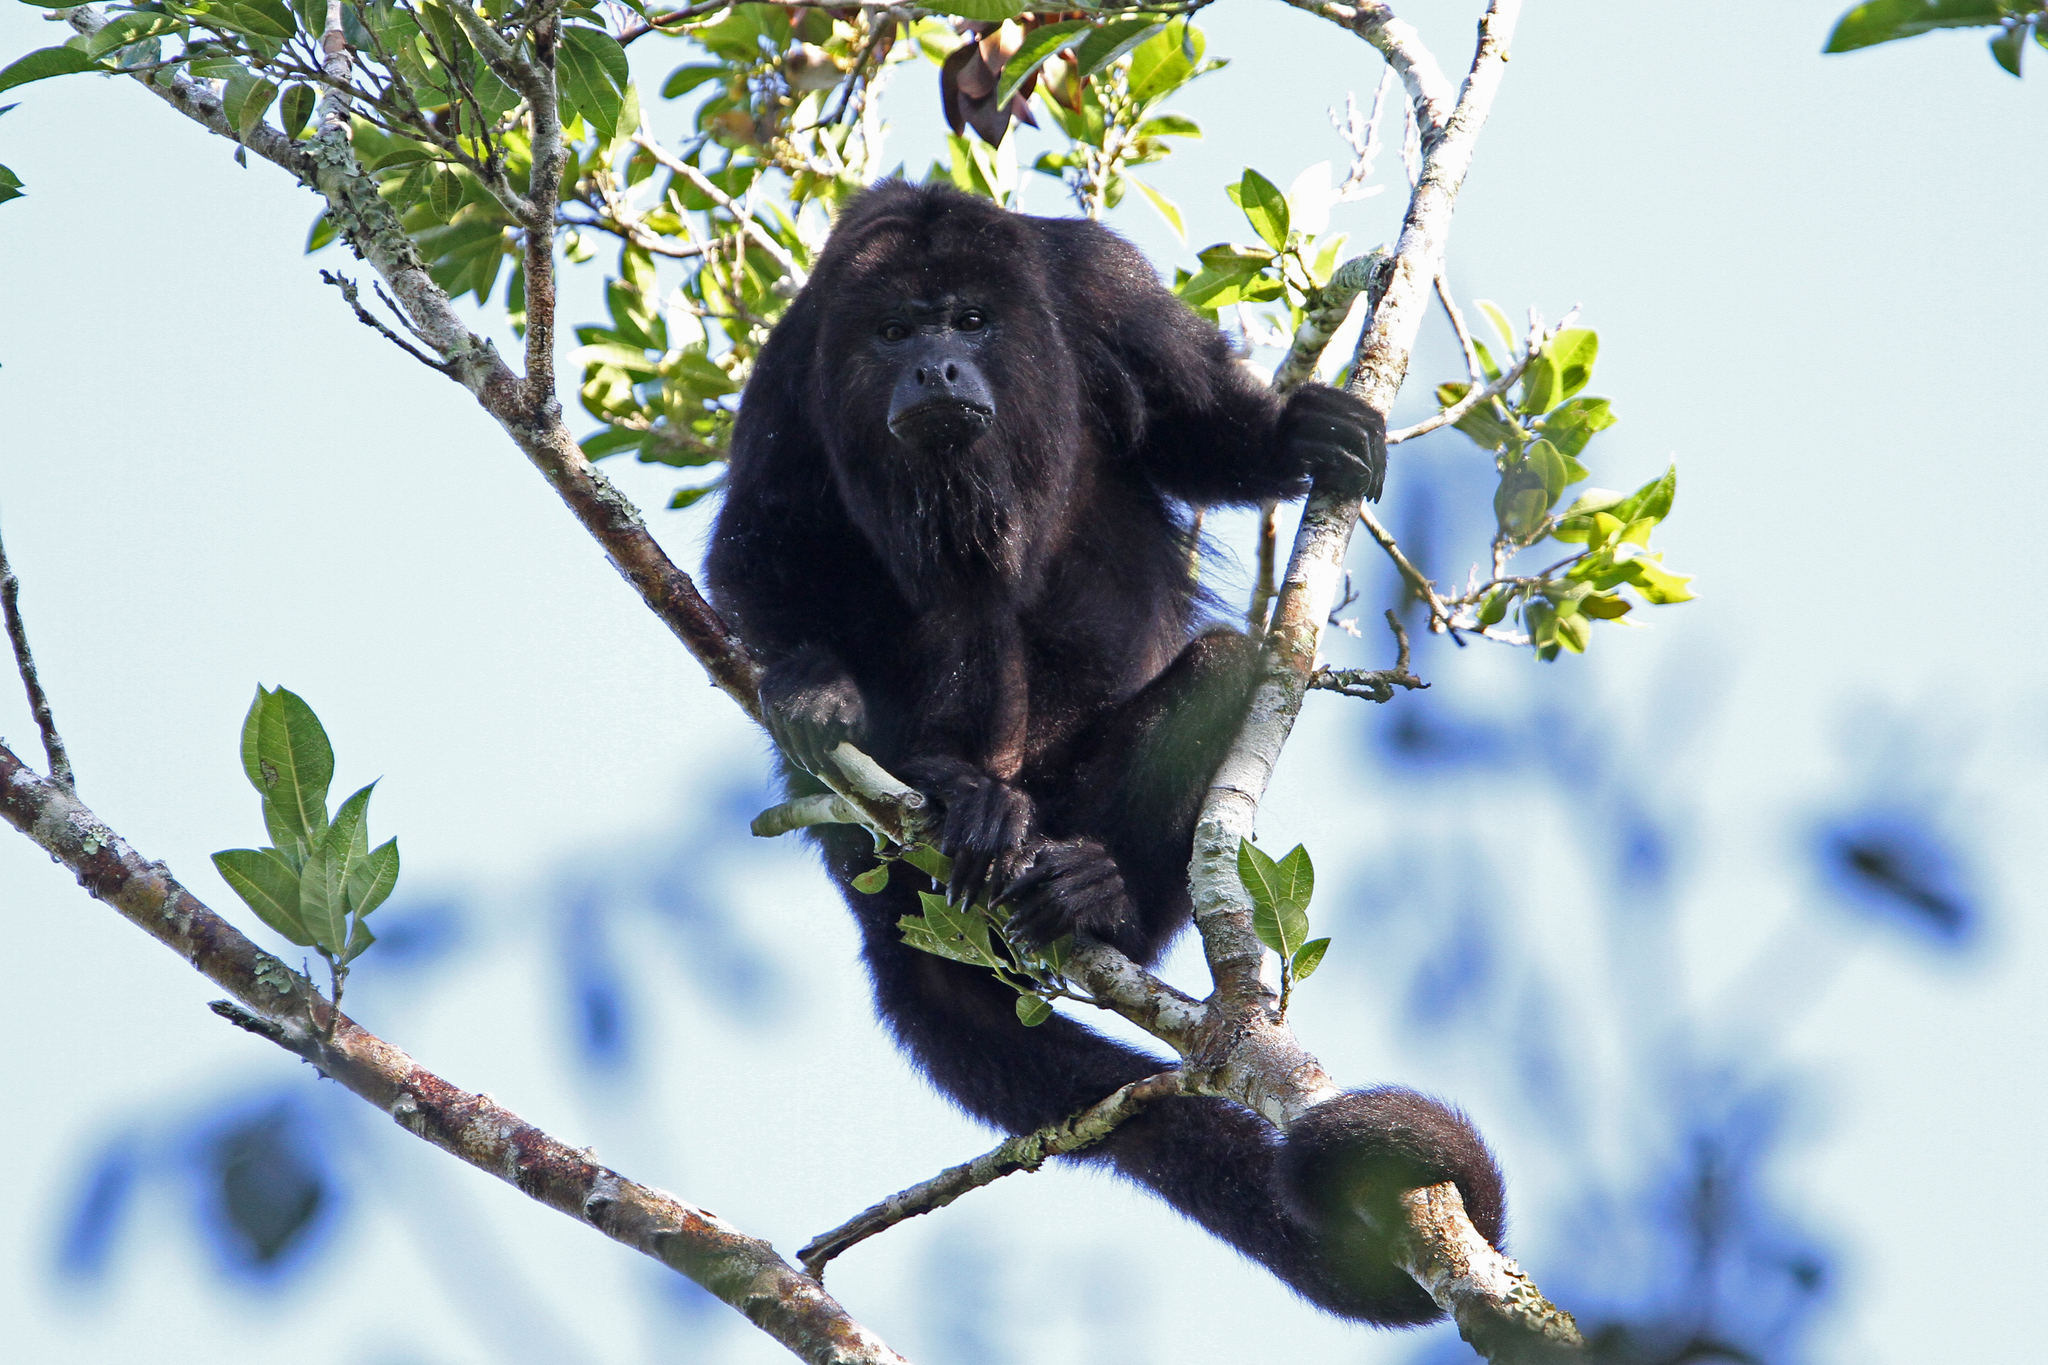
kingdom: Animalia
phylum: Chordata
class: Mammalia
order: Primates
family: Atelidae
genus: Alouatta
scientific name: Alouatta pigra
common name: Guatemalan black howler
